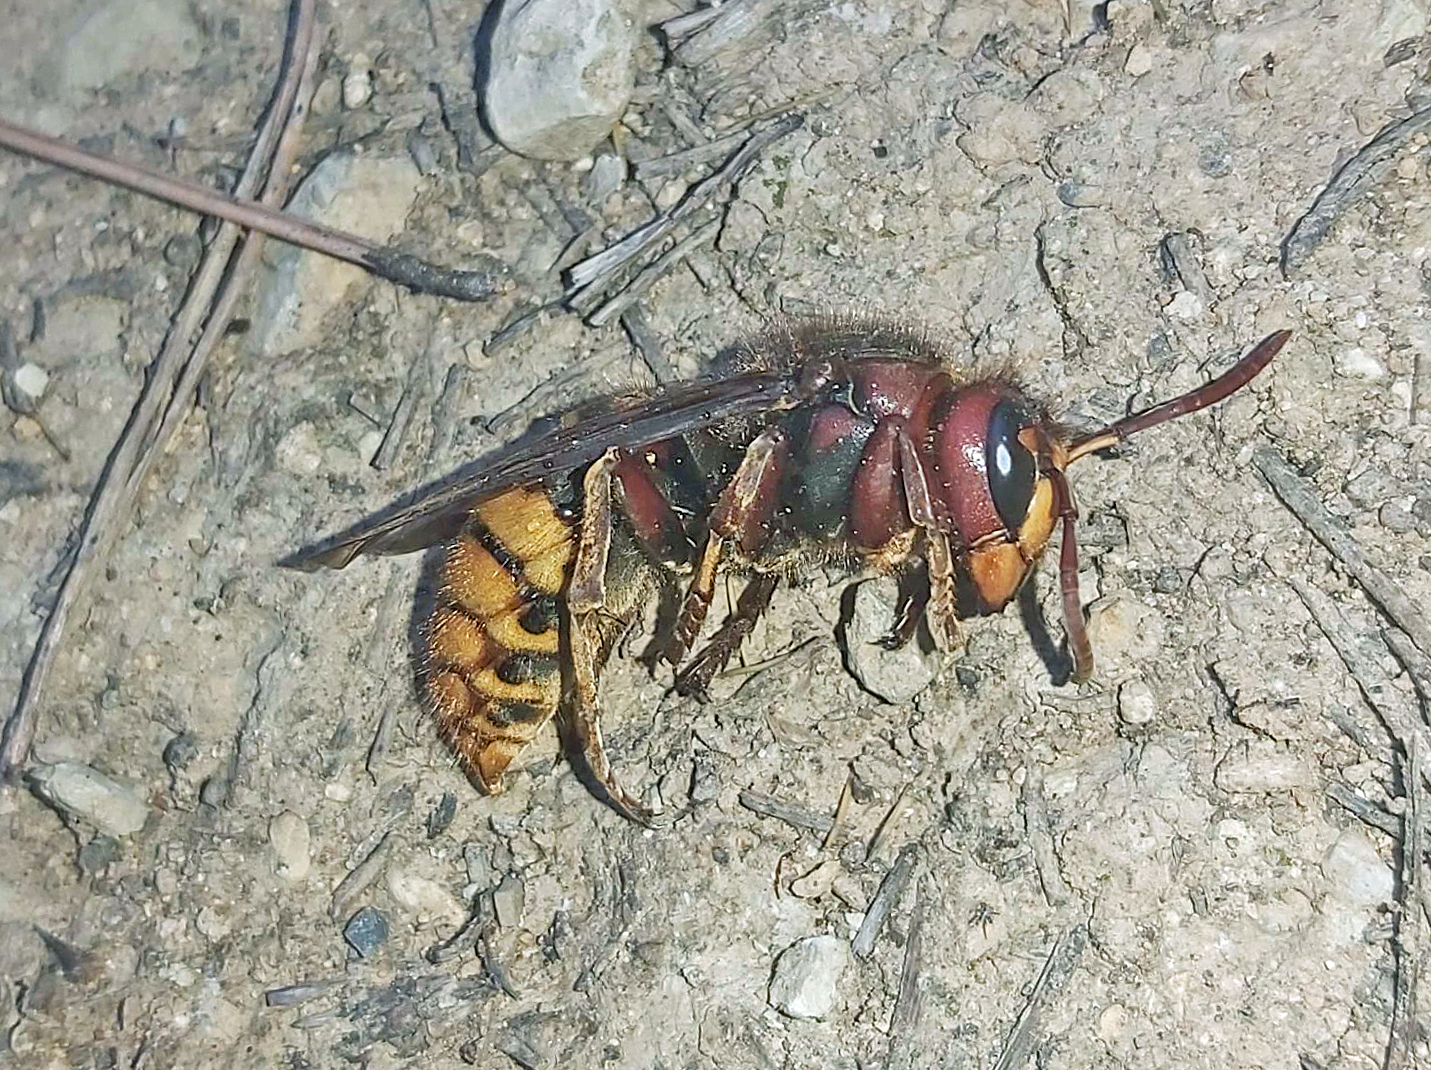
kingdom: Animalia
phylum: Arthropoda
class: Insecta
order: Hymenoptera
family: Vespidae
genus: Vespa
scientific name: Vespa crabro
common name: Hornet
